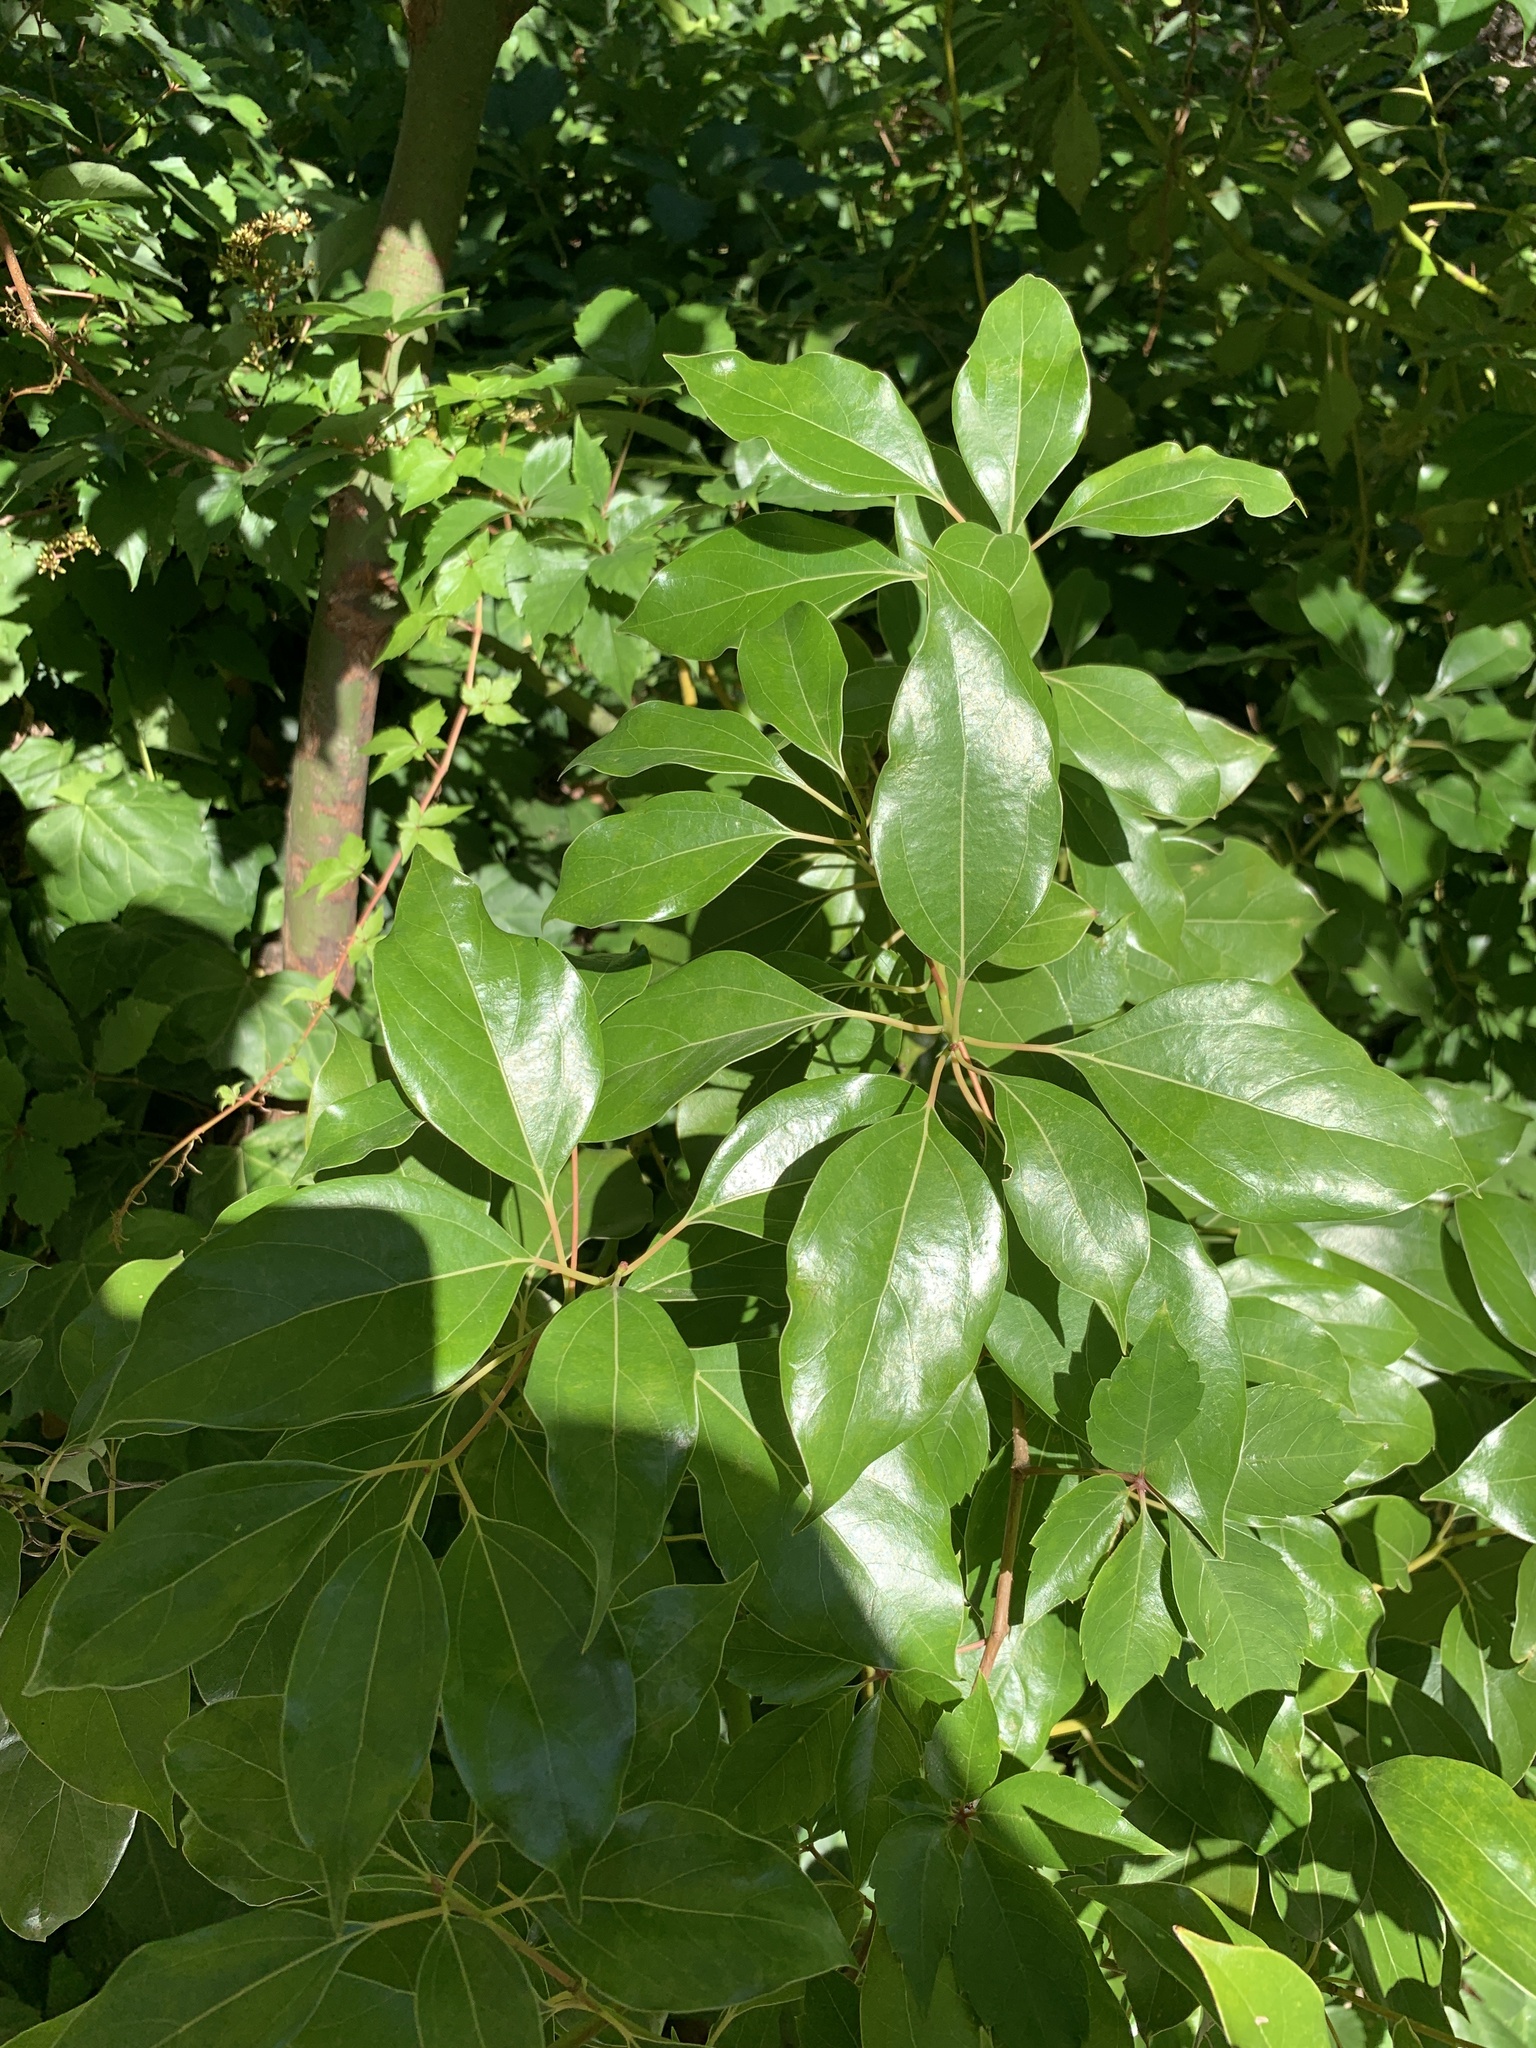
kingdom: Plantae
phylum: Tracheophyta
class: Magnoliopsida
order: Laurales
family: Lauraceae
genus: Cinnamomum
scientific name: Cinnamomum camphora
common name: Camphortree
